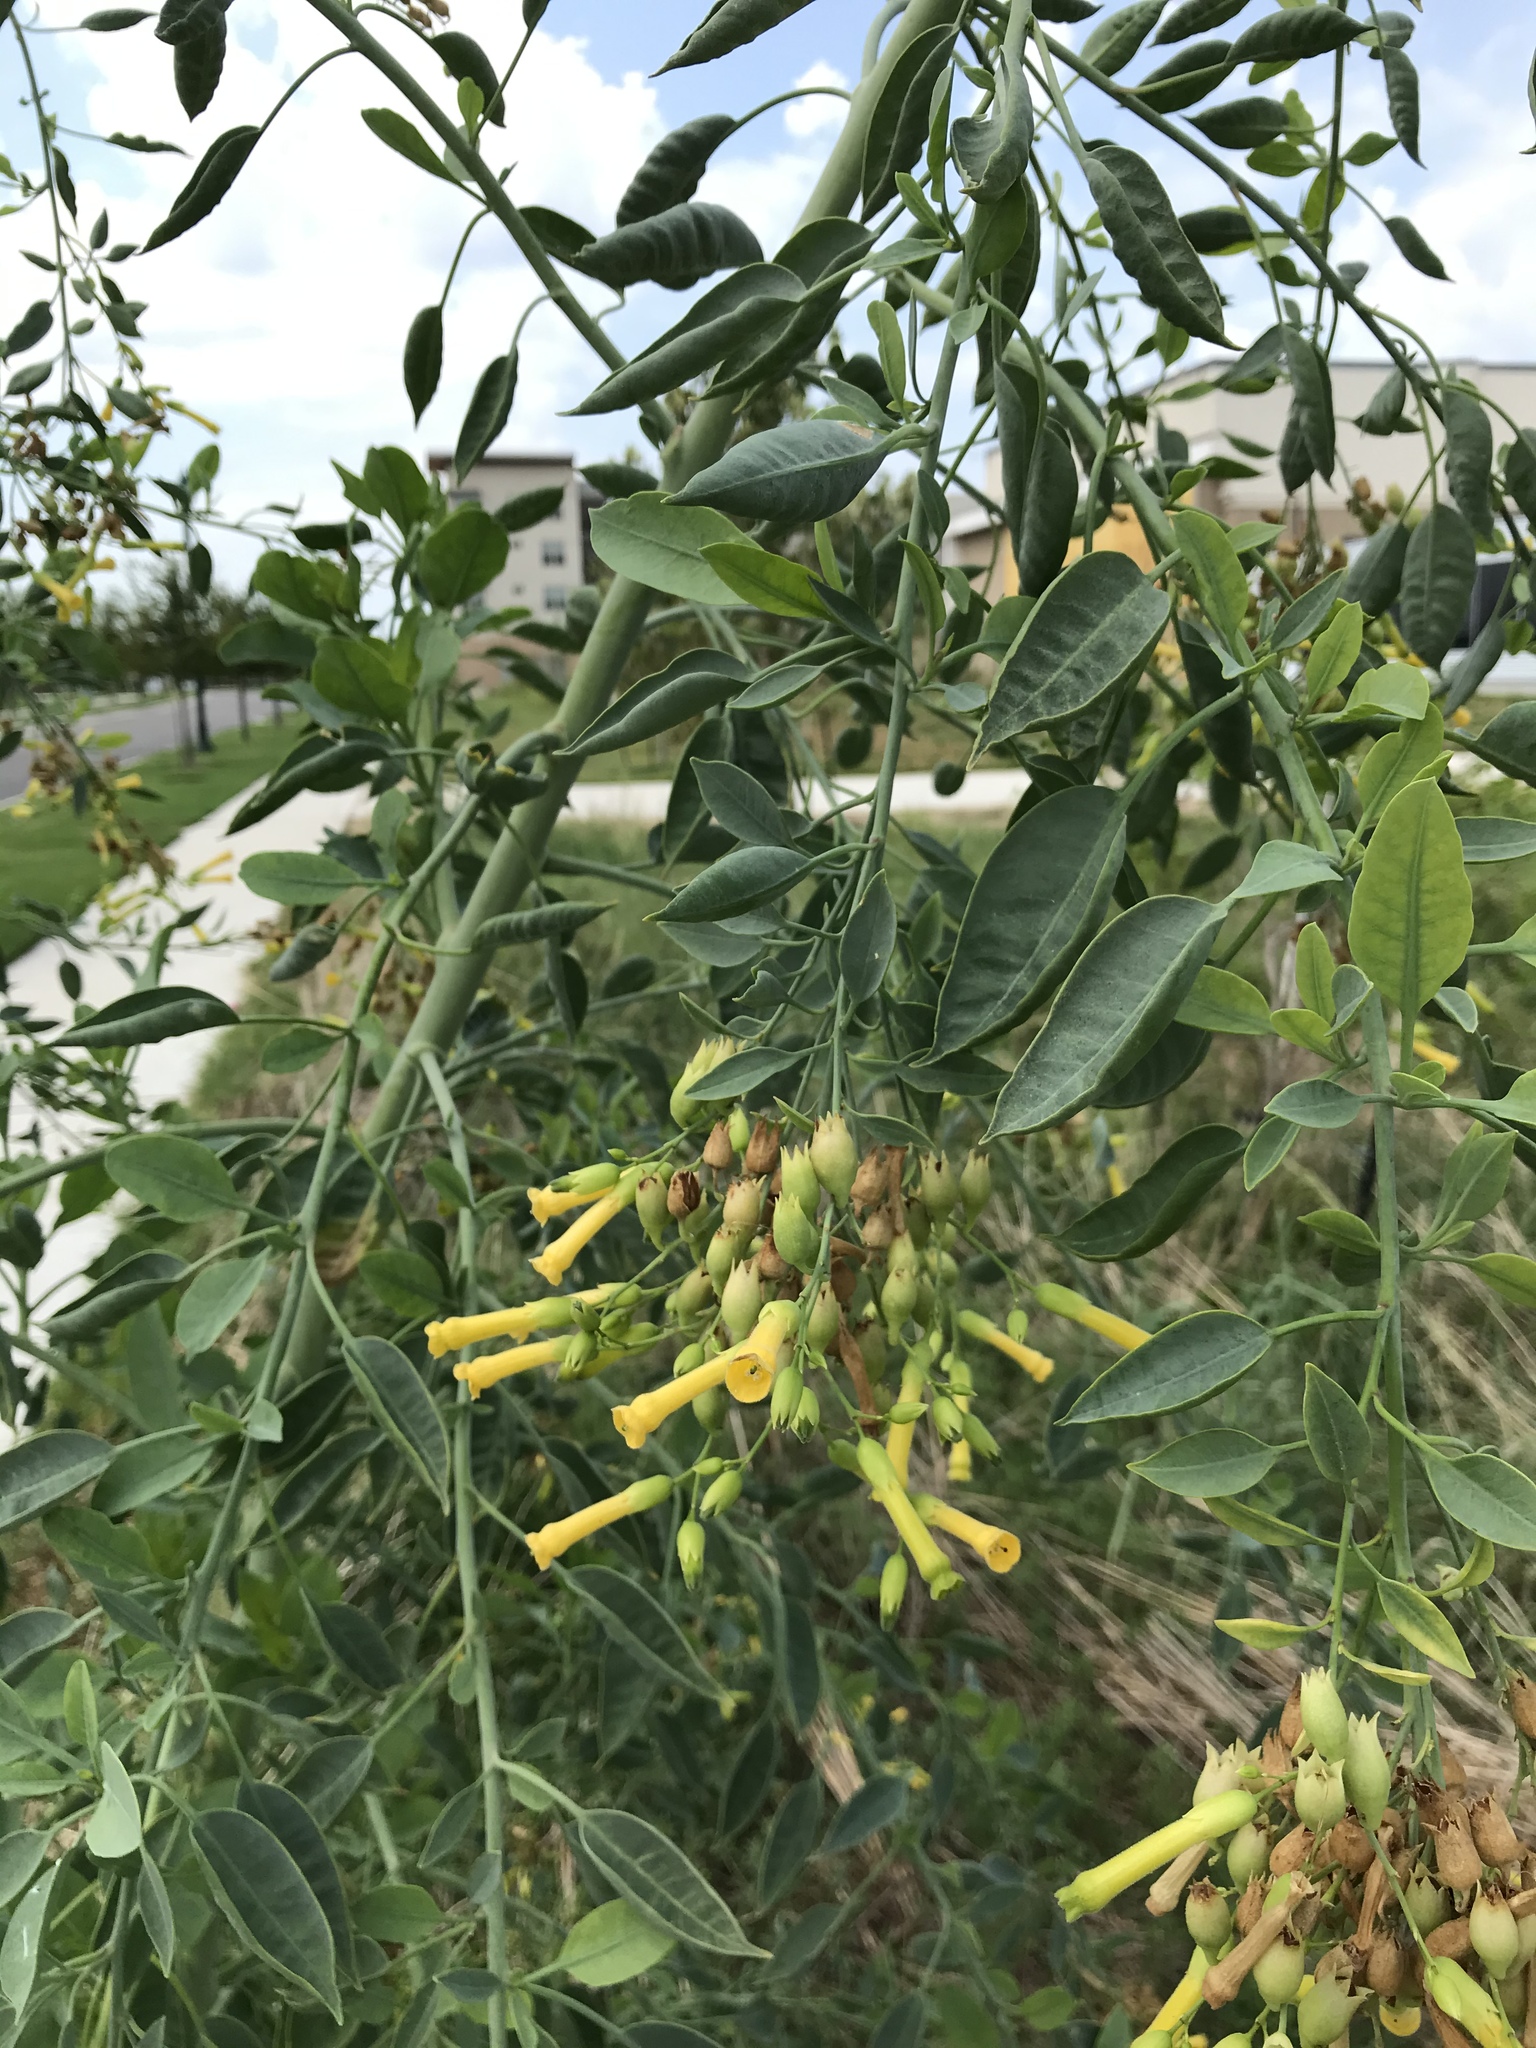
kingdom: Plantae
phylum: Tracheophyta
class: Magnoliopsida
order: Solanales
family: Solanaceae
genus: Nicotiana
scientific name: Nicotiana glauca
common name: Tree tobacco
